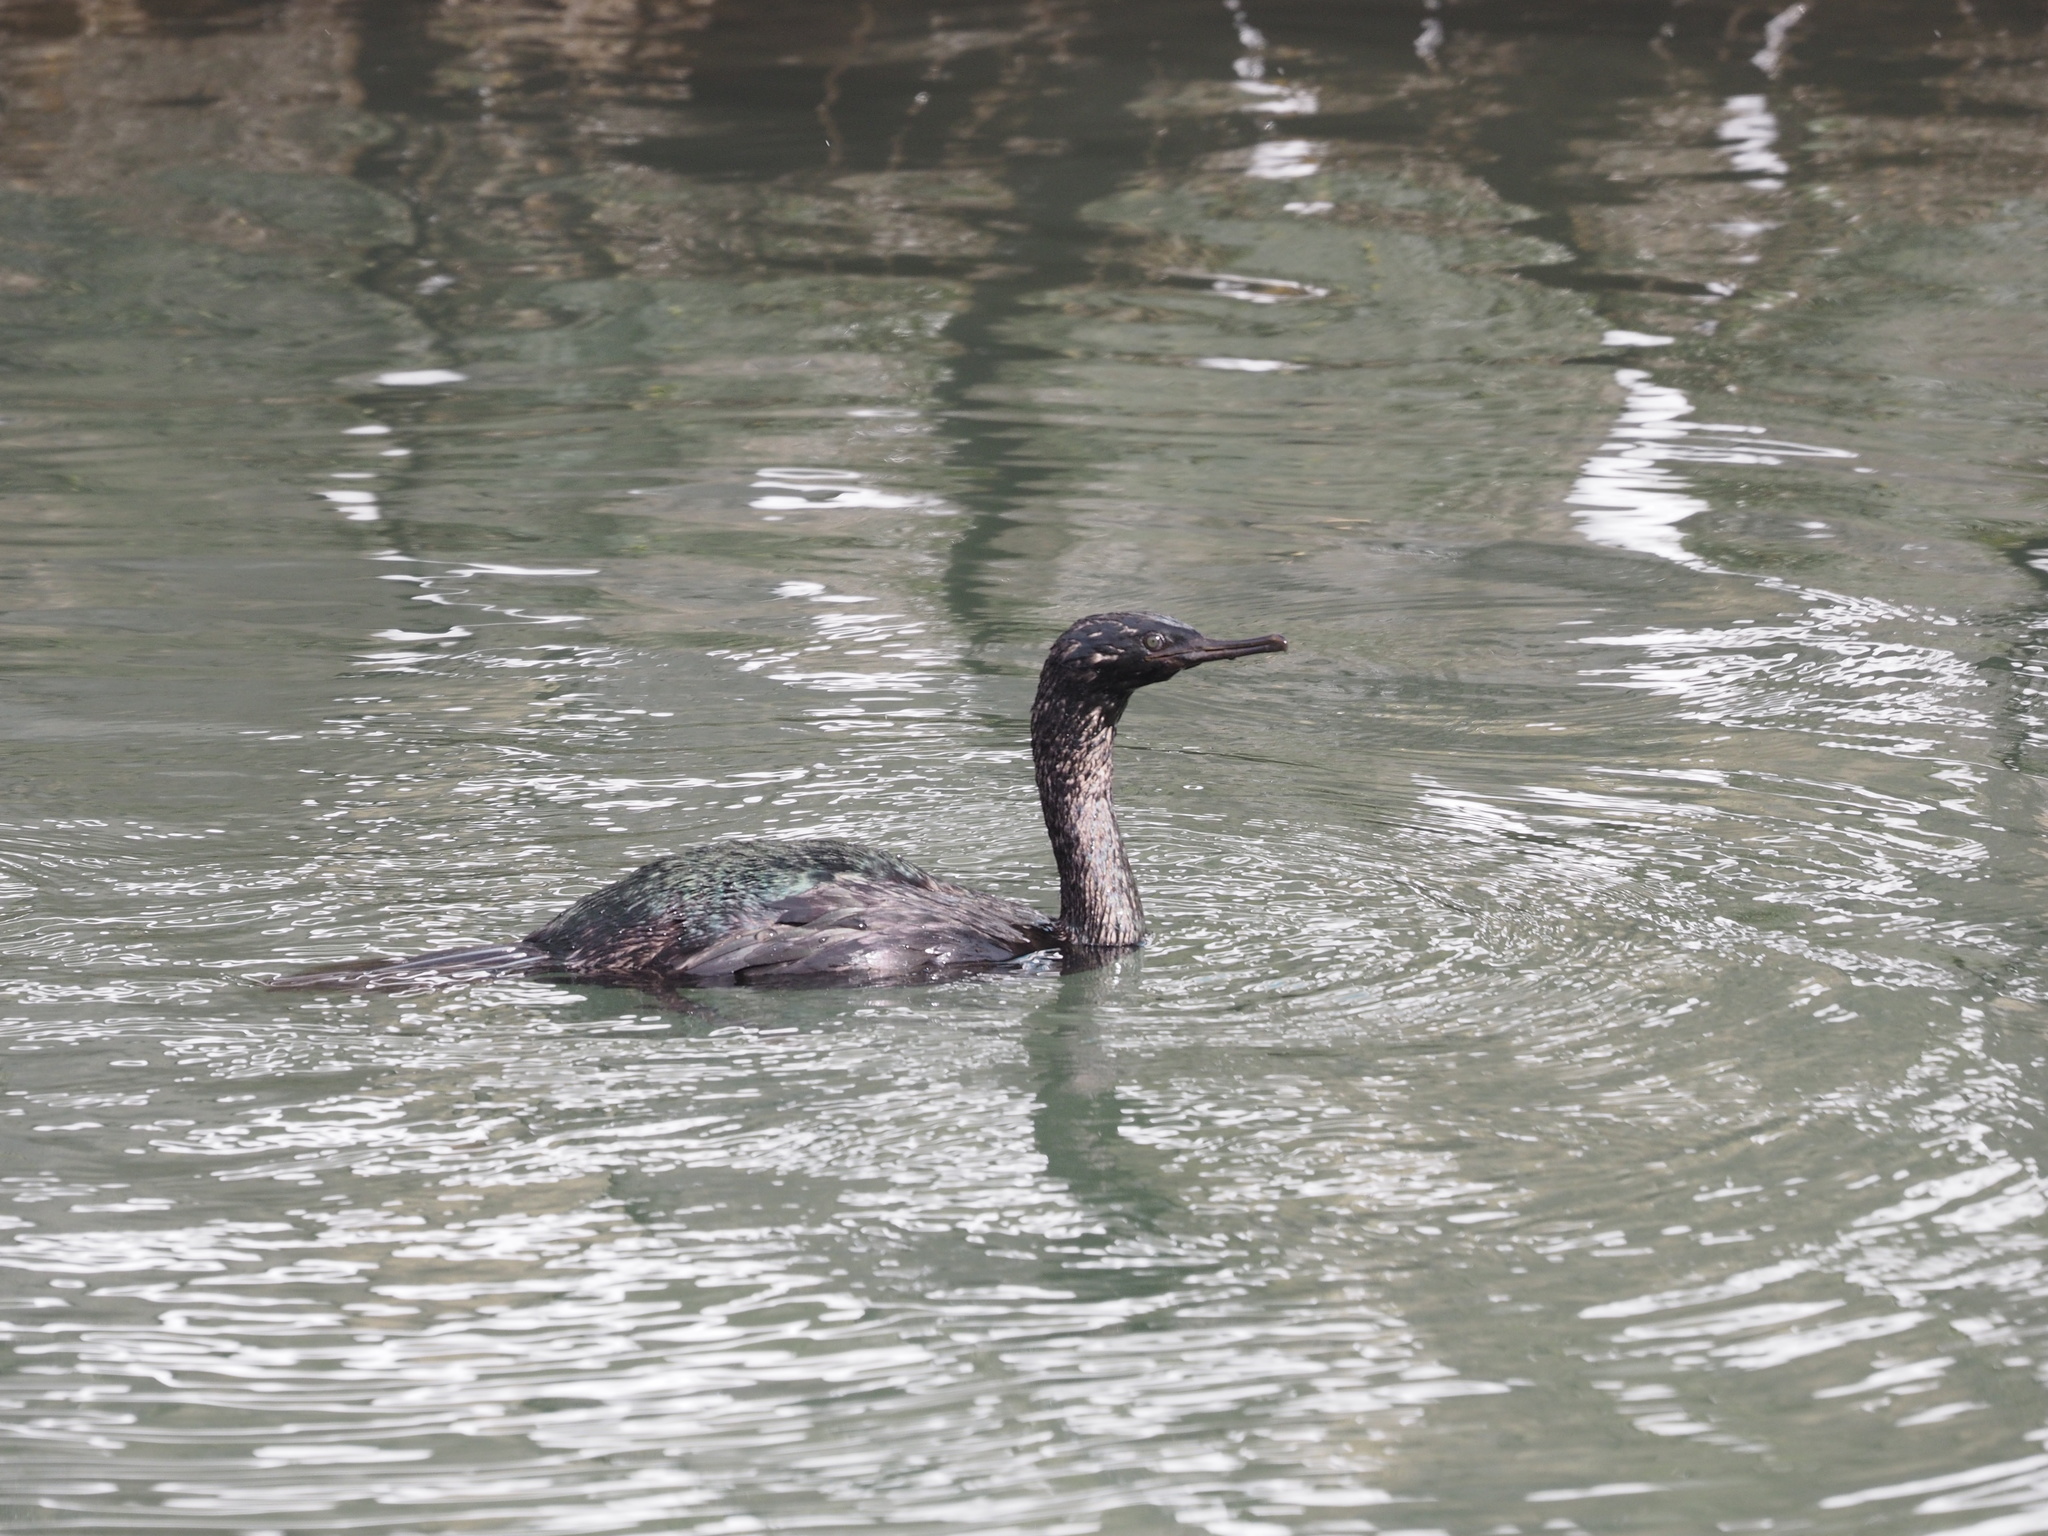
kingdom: Animalia
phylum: Chordata
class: Aves
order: Suliformes
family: Phalacrocoracidae
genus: Phalacrocorax
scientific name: Phalacrocorax pelagicus
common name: Pelagic cormorant
